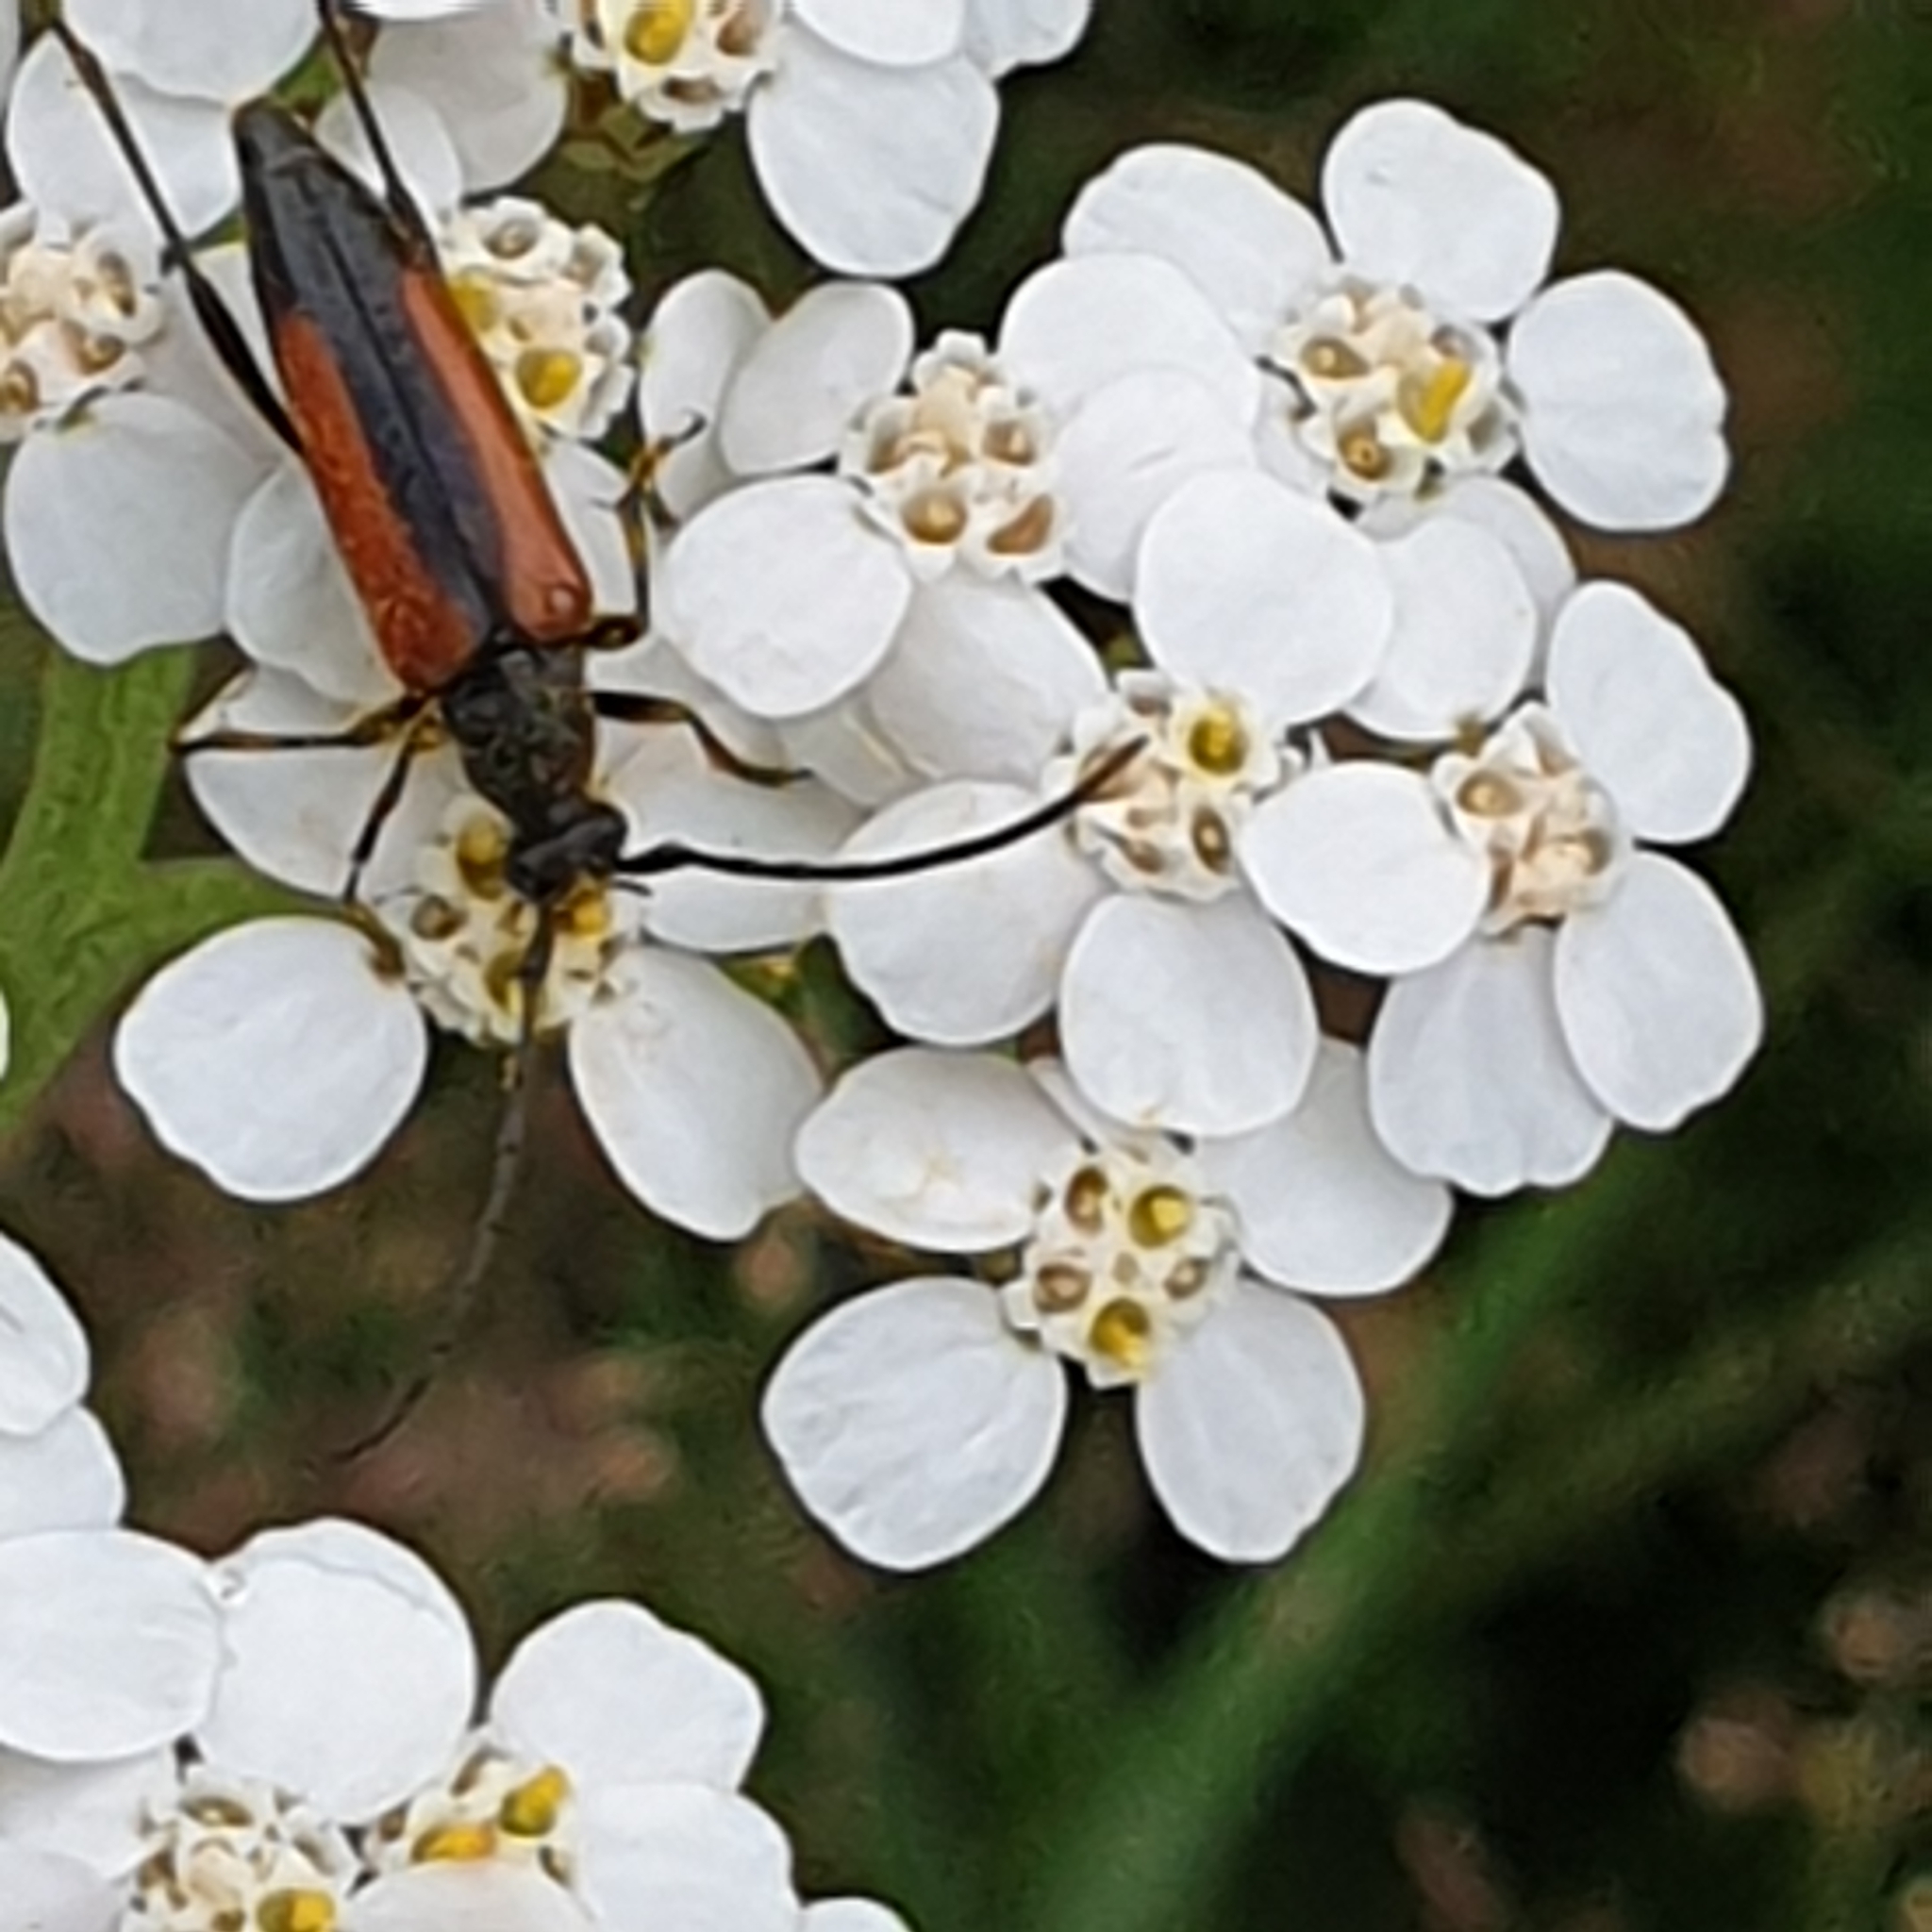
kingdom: Animalia
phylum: Arthropoda
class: Insecta
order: Coleoptera
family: Cerambycidae
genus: Stenurella
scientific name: Stenurella melanura
